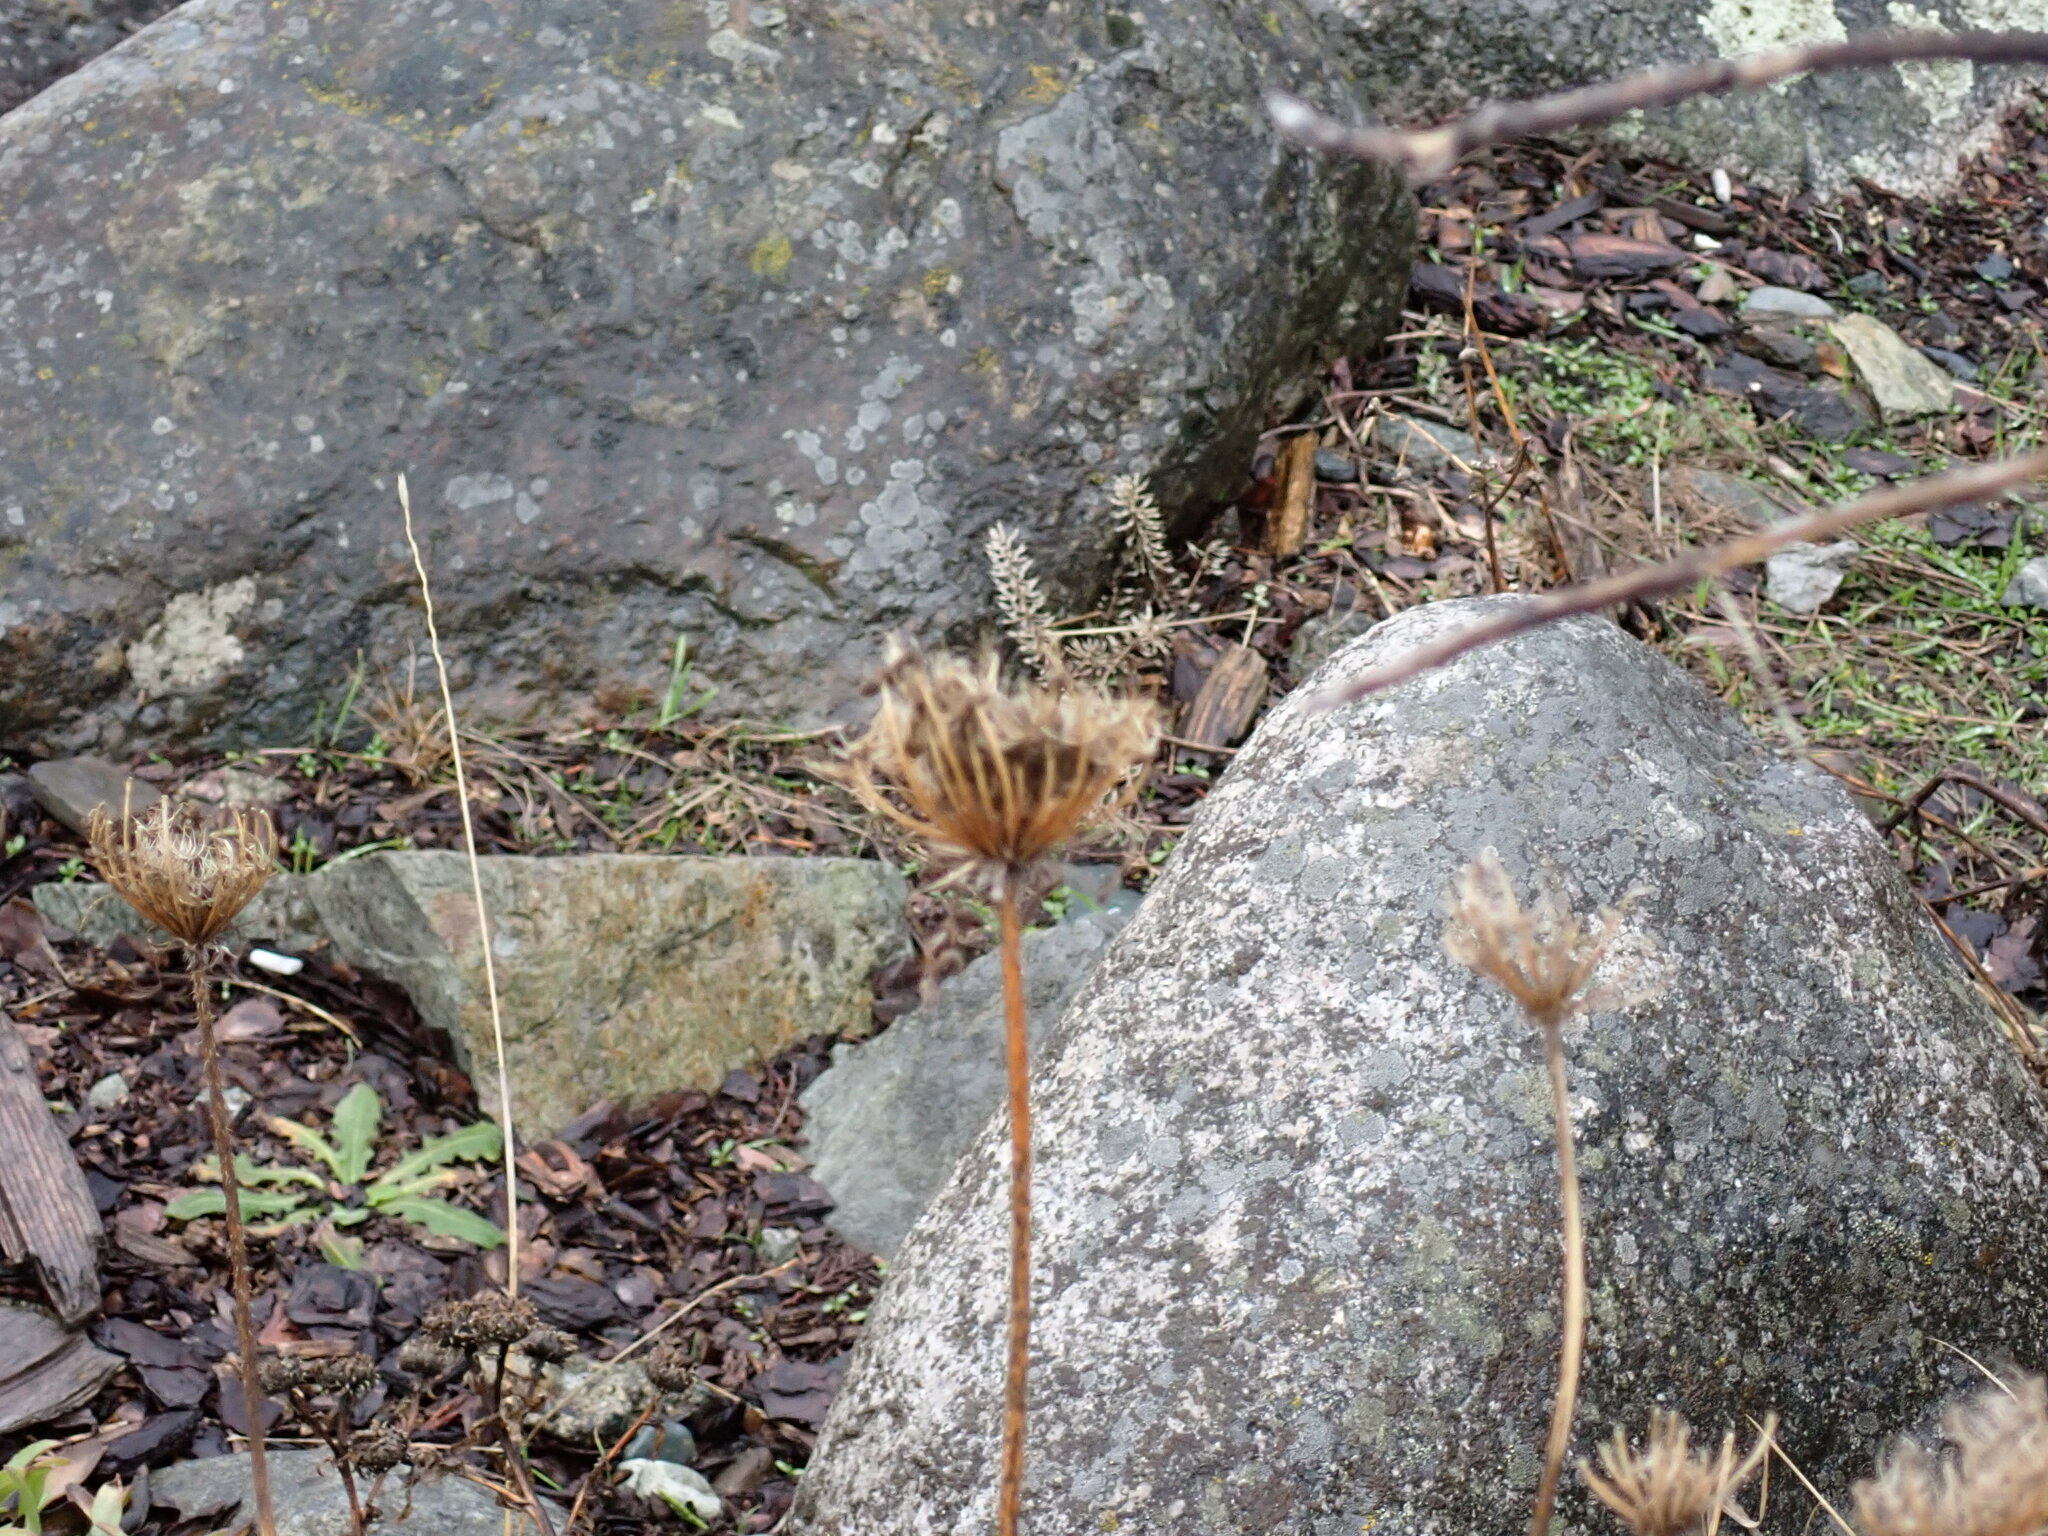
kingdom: Plantae
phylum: Tracheophyta
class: Magnoliopsida
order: Apiales
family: Apiaceae
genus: Daucus
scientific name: Daucus carota
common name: Wild carrot
